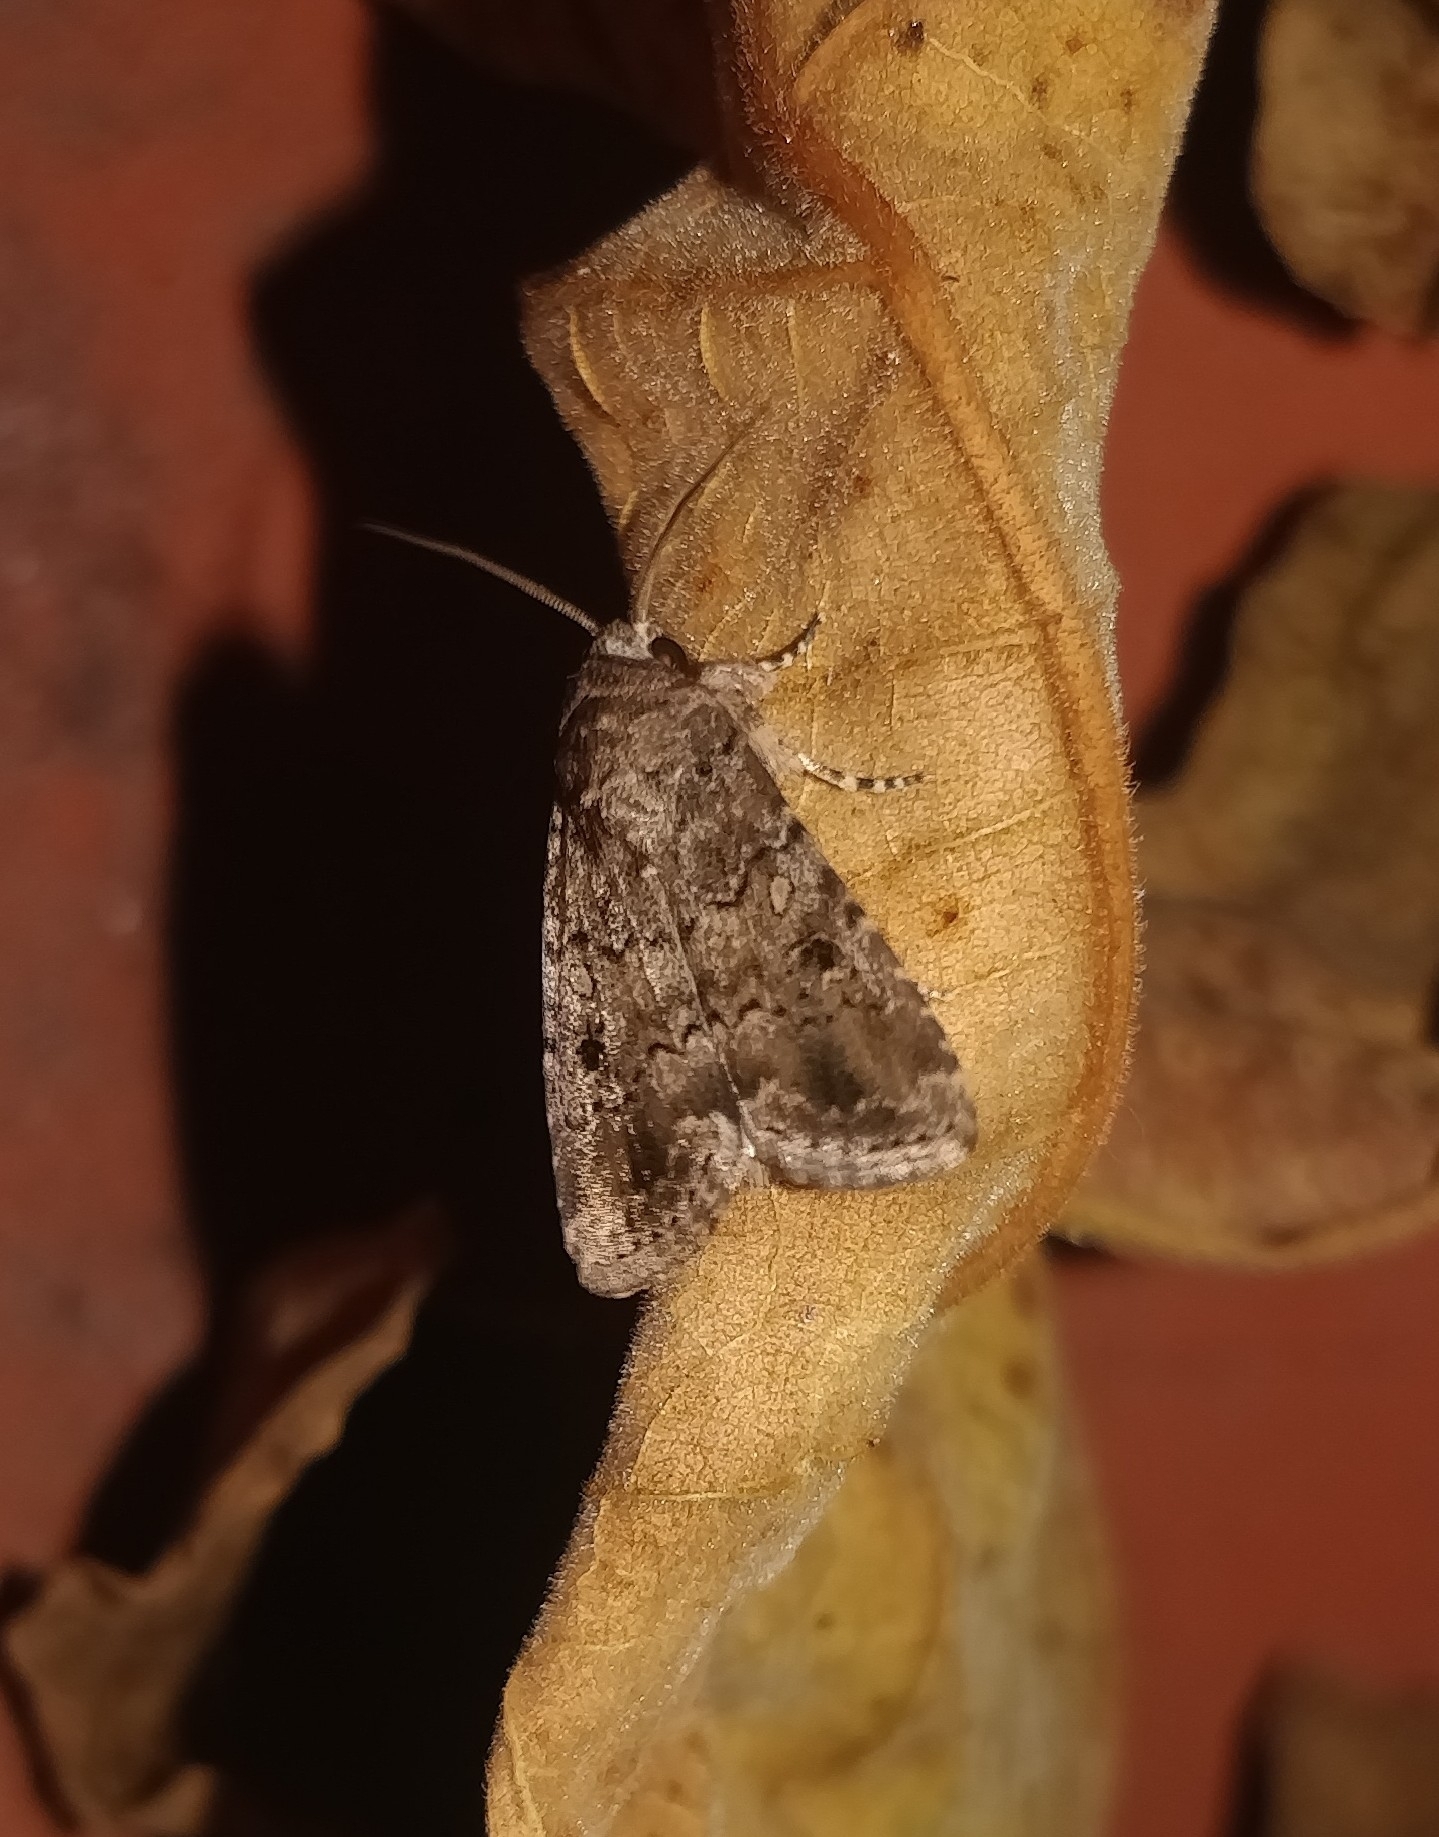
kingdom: Animalia
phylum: Arthropoda
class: Insecta
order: Lepidoptera
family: Noctuidae
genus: Spodoptera
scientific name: Spodoptera cilium
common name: Dark mottled willow
